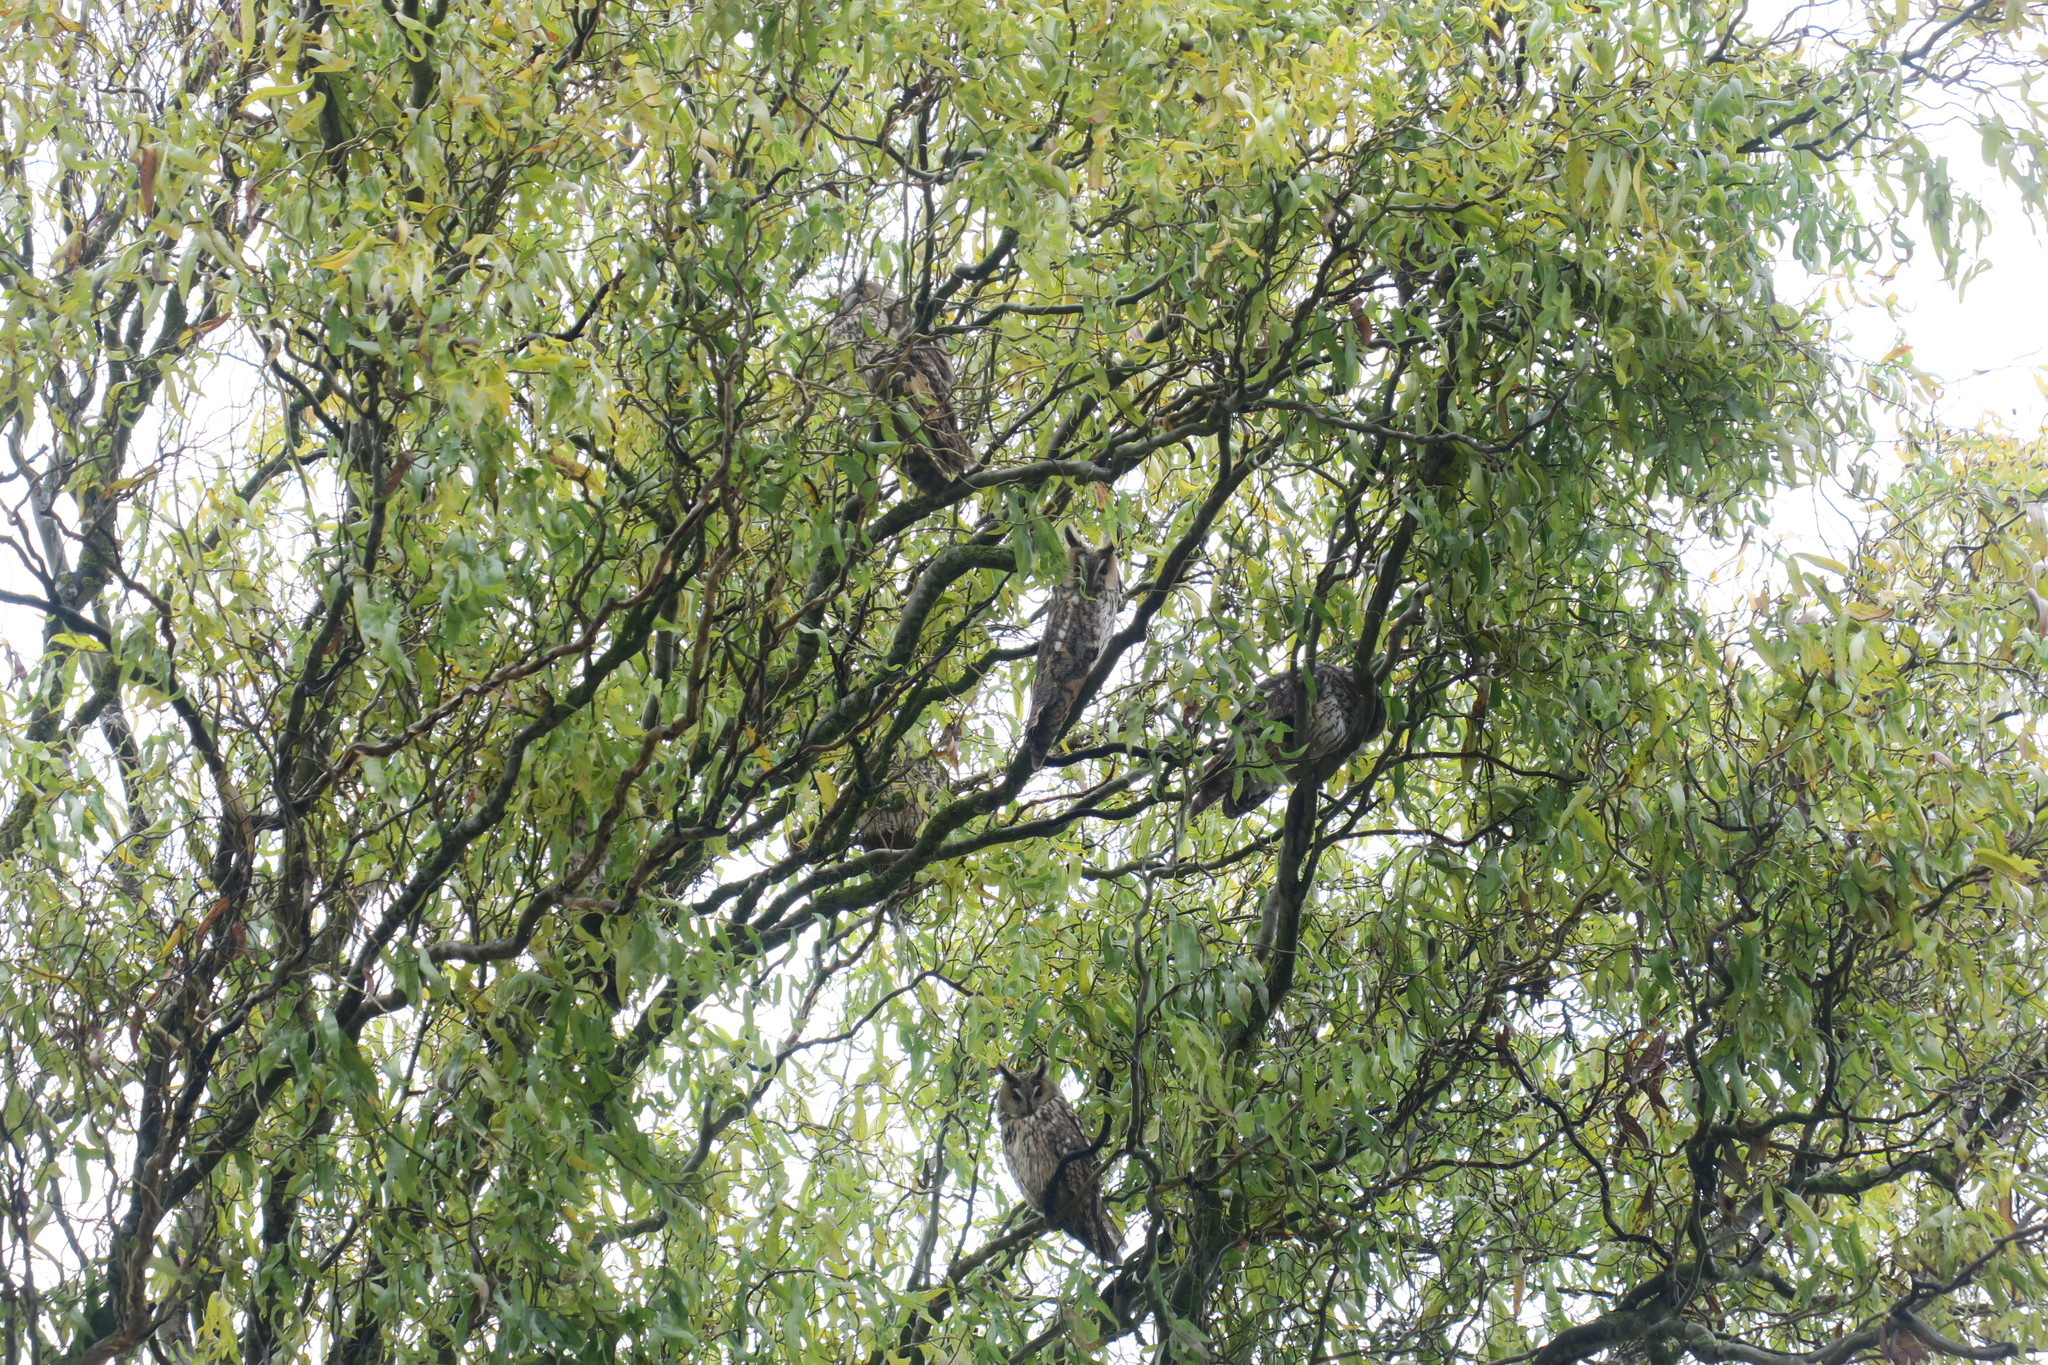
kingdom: Animalia
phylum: Chordata
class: Aves
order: Strigiformes
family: Strigidae
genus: Asio
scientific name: Asio otus
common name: Long-eared owl
